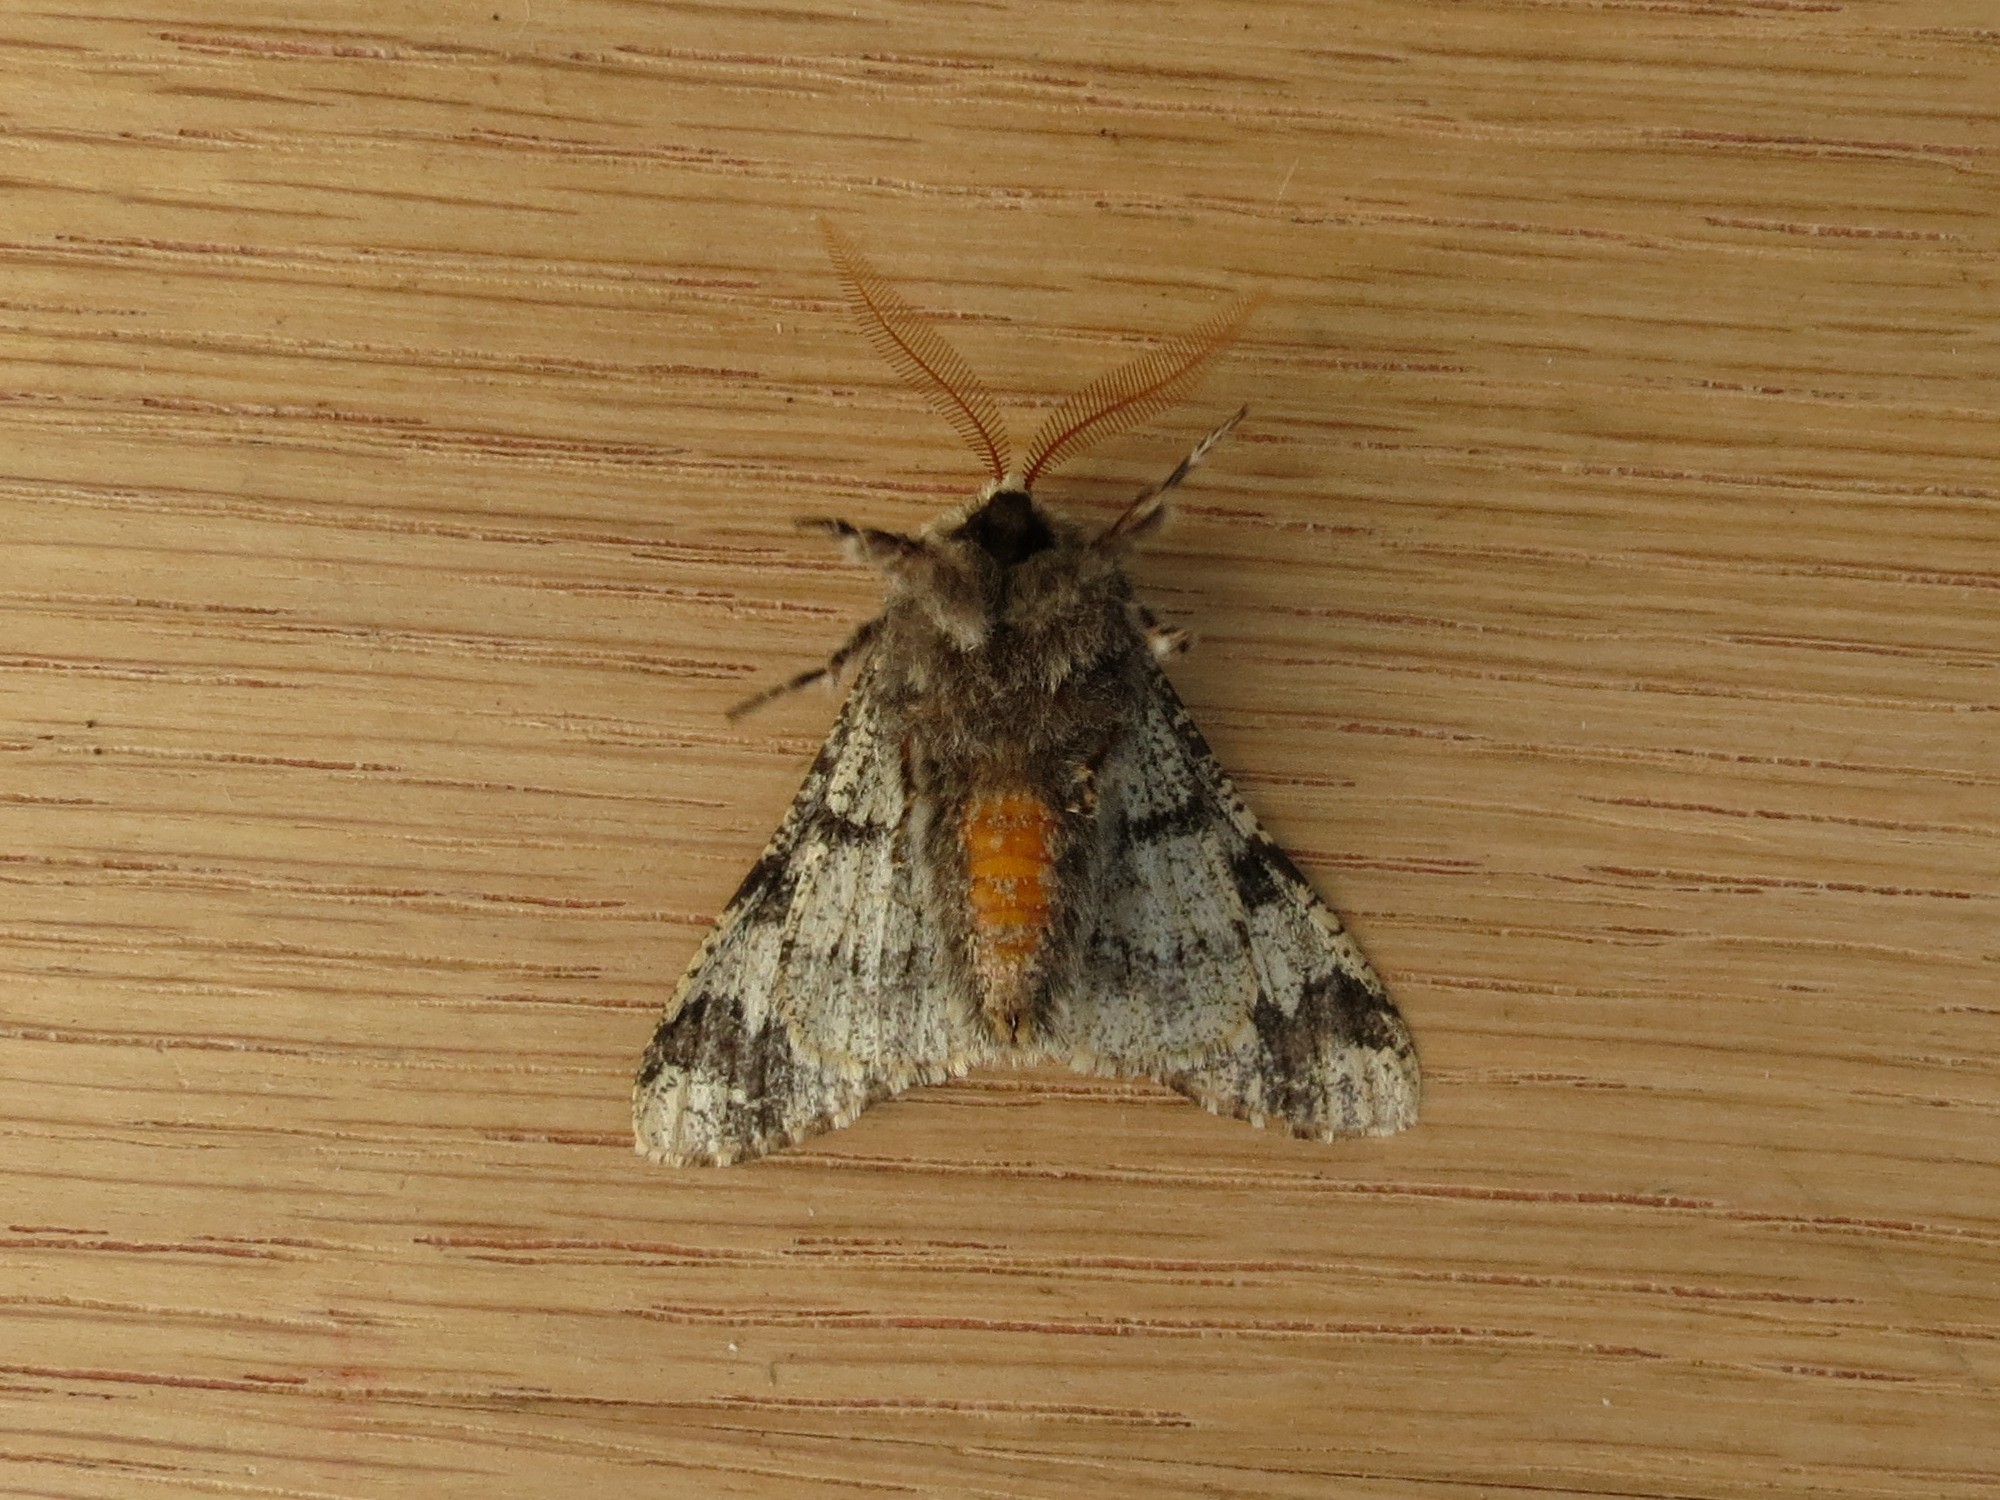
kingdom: Animalia
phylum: Arthropoda
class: Insecta
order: Lepidoptera
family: Geometridae
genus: Biston
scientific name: Biston strataria
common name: Oak beauty
